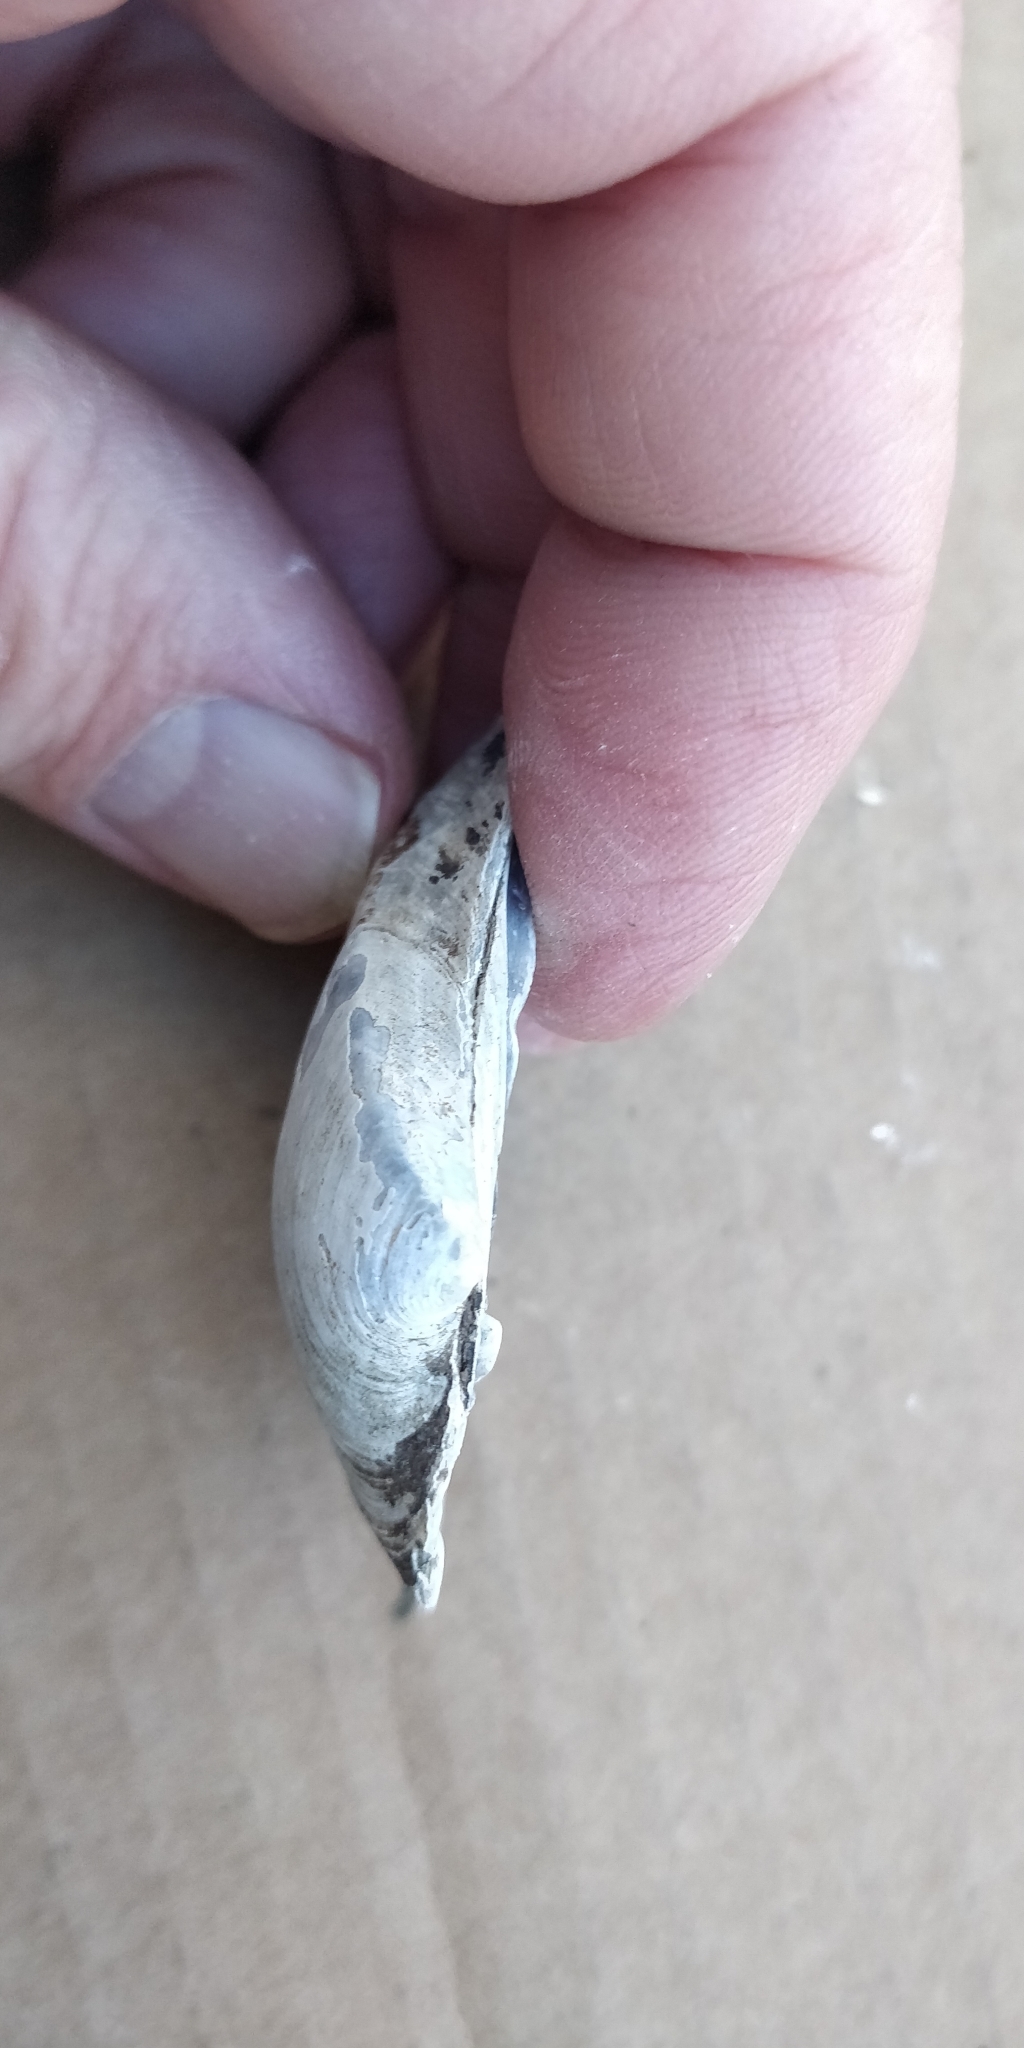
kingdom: Animalia
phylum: Mollusca
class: Bivalvia
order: Unionida
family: Unionidae
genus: Fusconaia
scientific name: Fusconaia flava
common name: Wabash pigtoe
